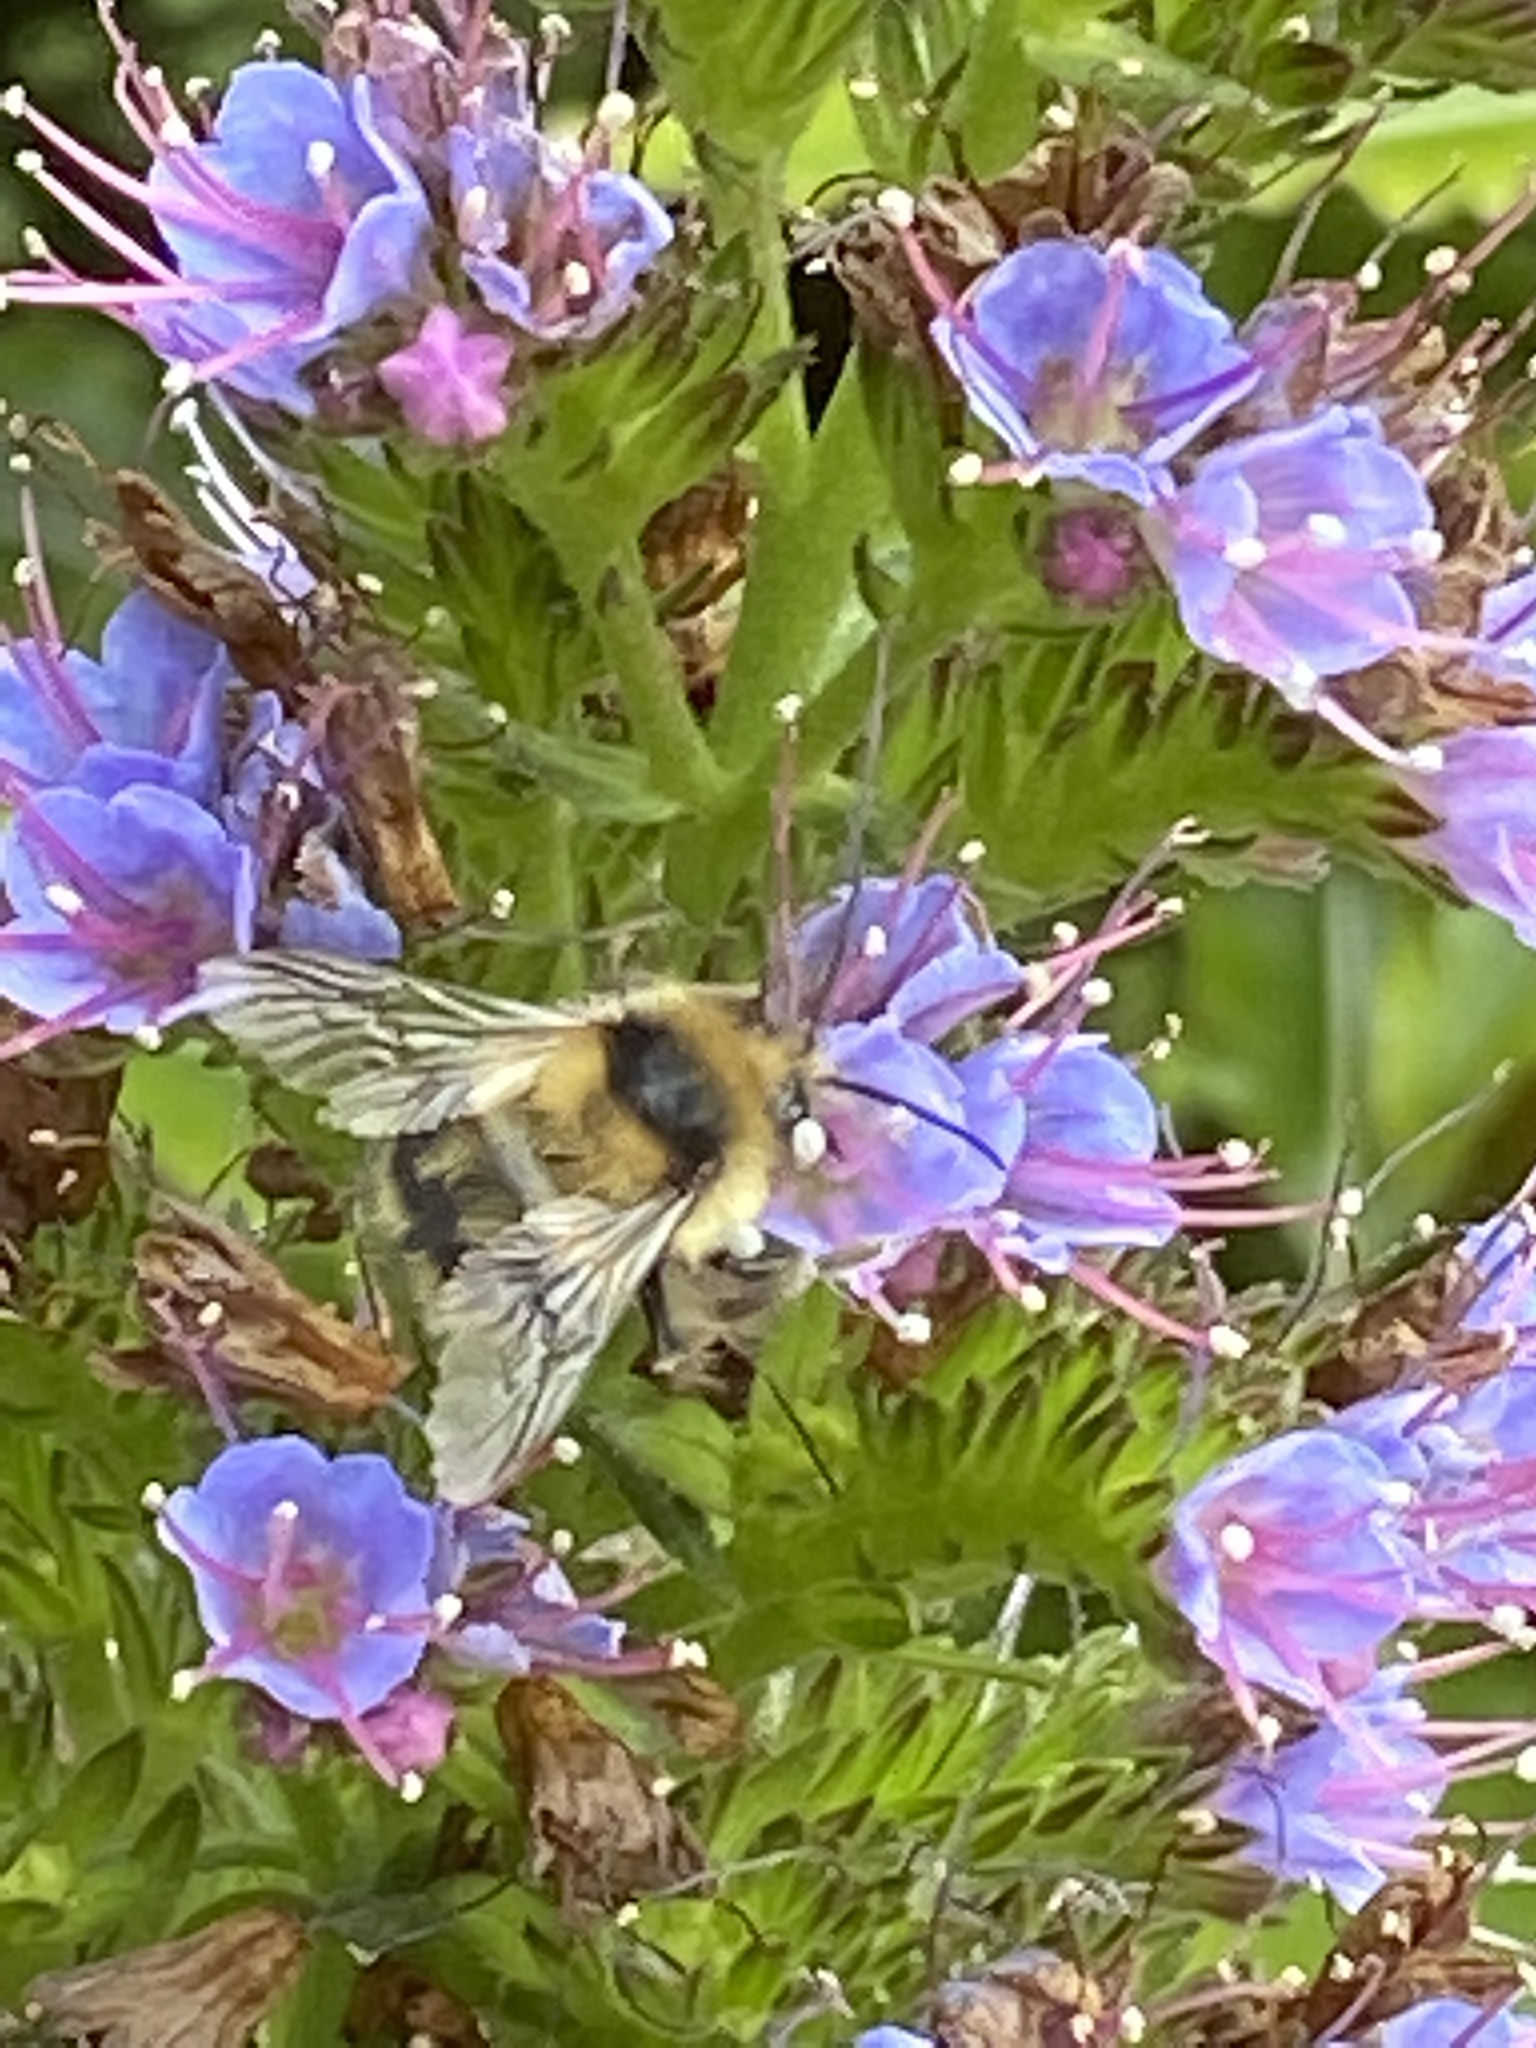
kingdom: Animalia
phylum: Arthropoda
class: Insecta
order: Hymenoptera
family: Apidae
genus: Bombus
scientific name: Bombus melanopygus
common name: Black tail bumble bee
